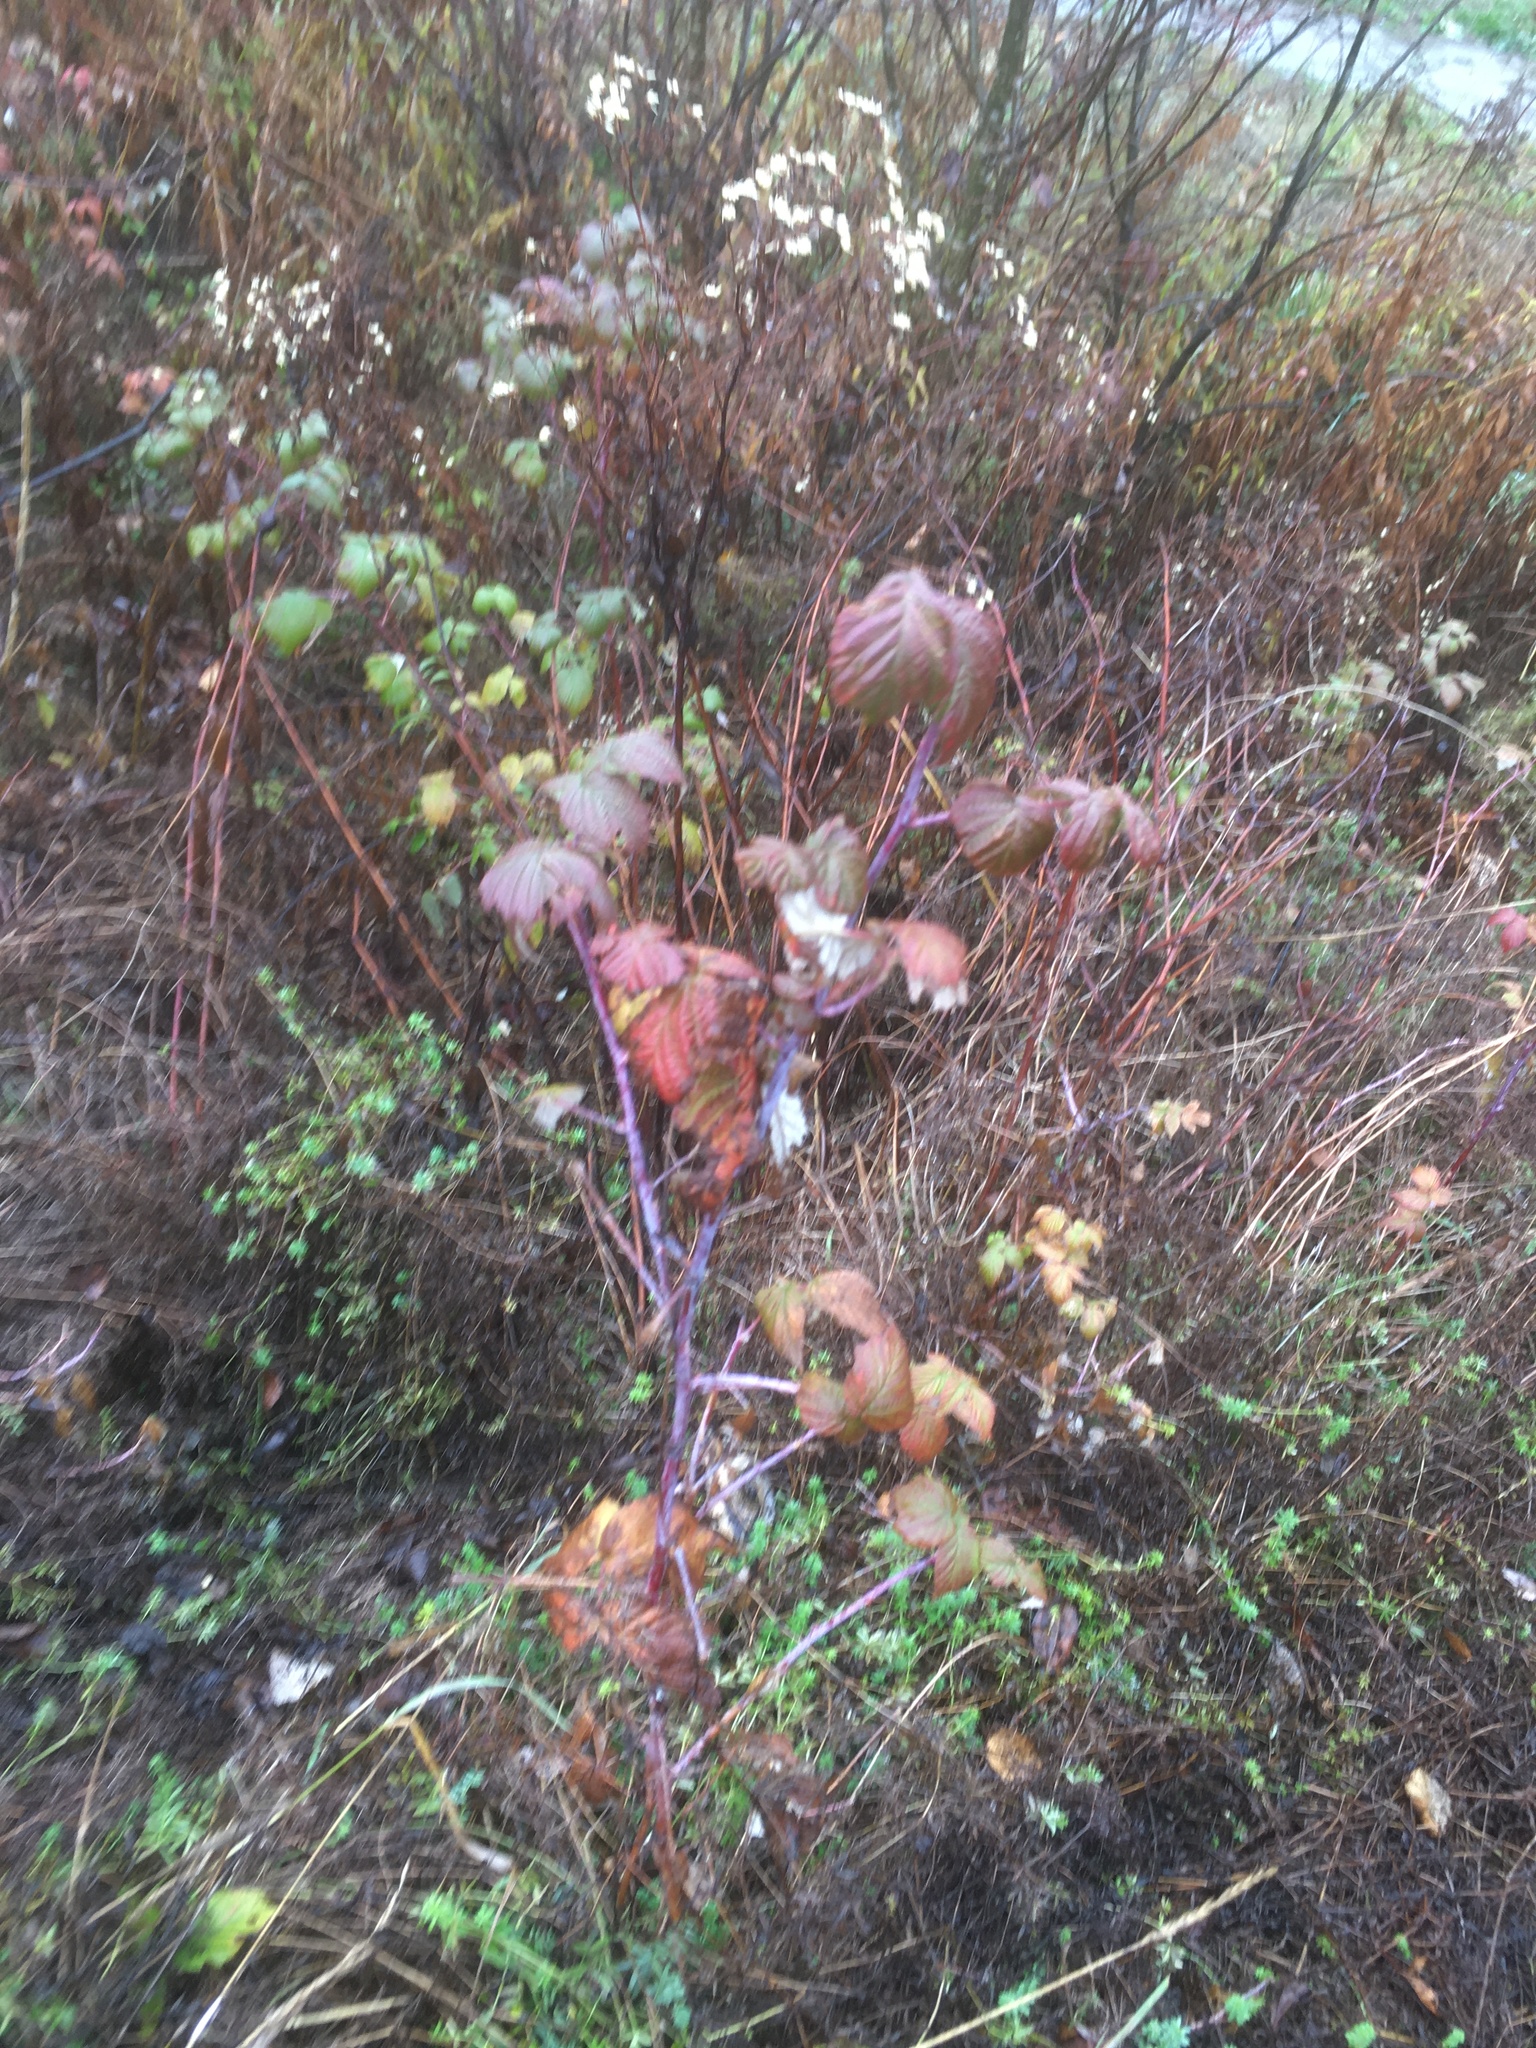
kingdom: Plantae
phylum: Tracheophyta
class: Magnoliopsida
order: Rosales
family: Rosaceae
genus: Rubus
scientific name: Rubus occidentalis
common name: Black raspberry
